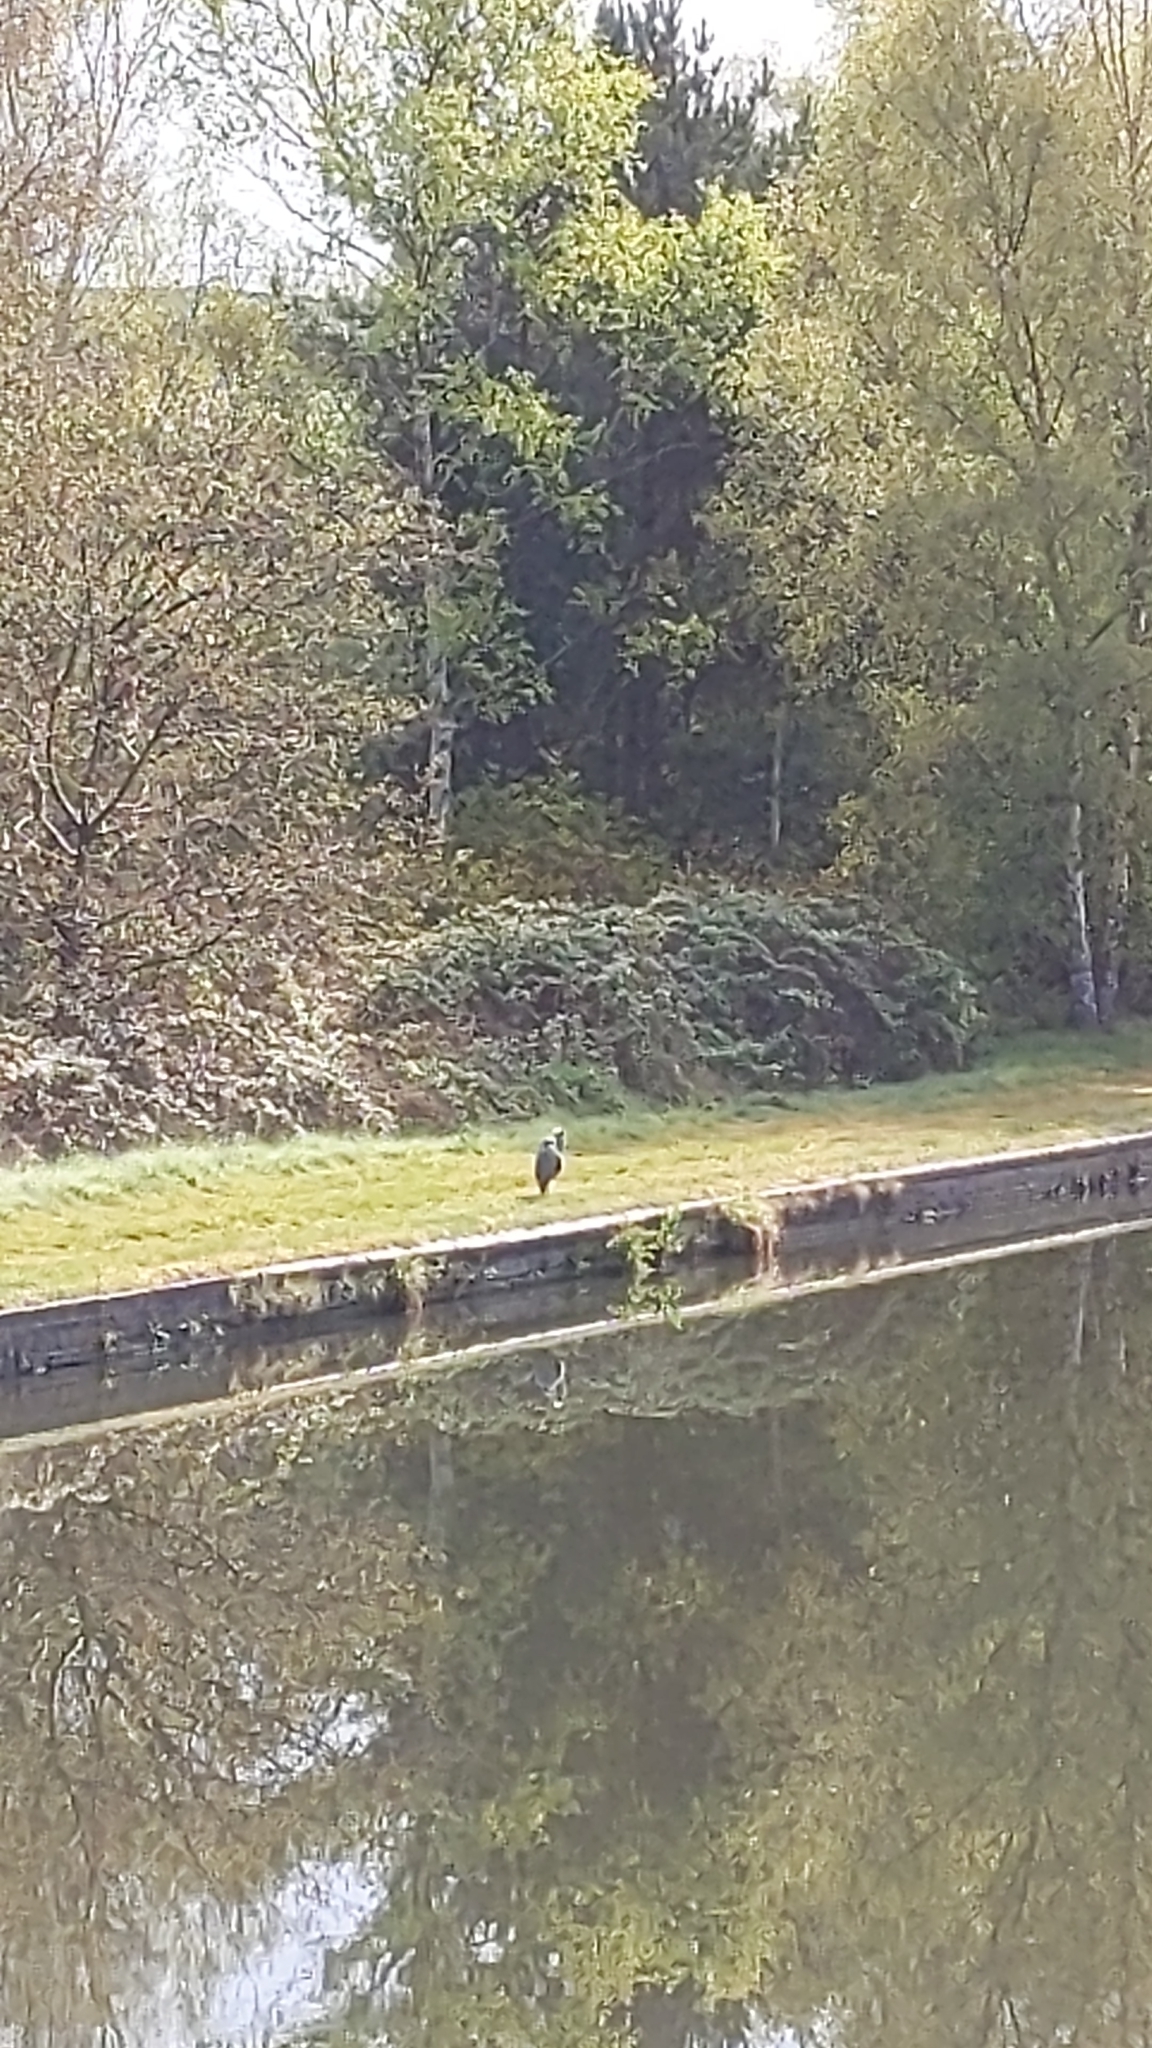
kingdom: Animalia
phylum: Chordata
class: Aves
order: Pelecaniformes
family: Ardeidae
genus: Ardea
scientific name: Ardea cinerea
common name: Grey heron
